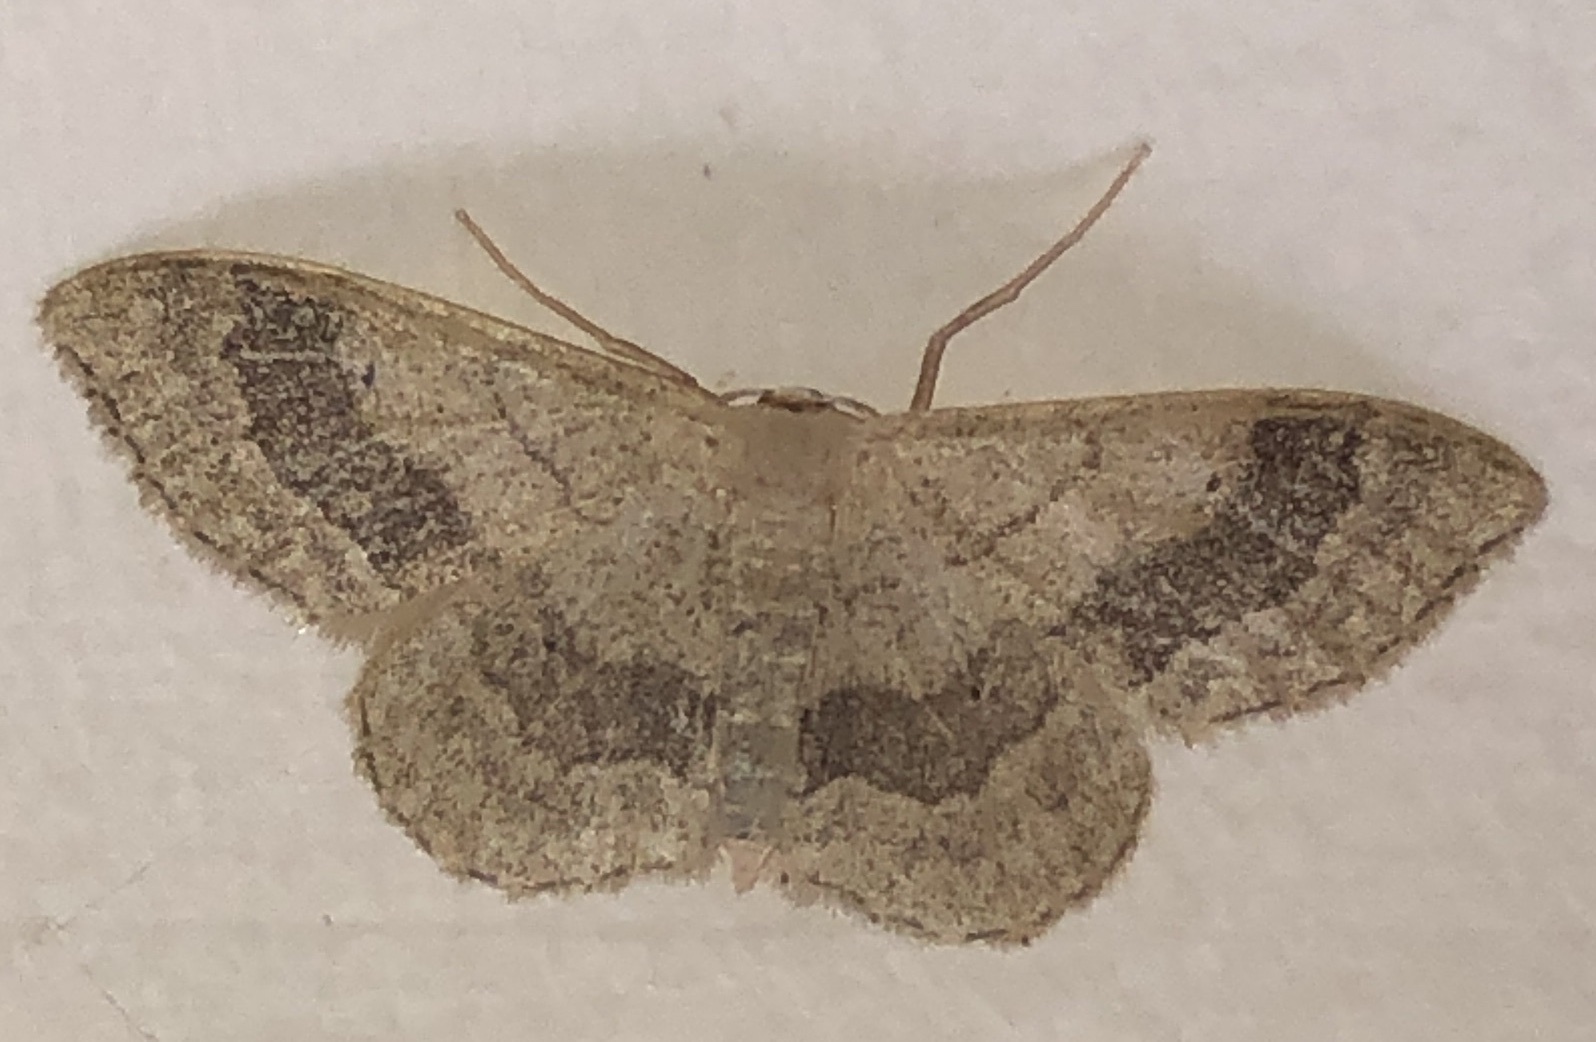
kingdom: Animalia
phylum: Arthropoda
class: Insecta
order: Lepidoptera
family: Geometridae
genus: Idaea
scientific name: Idaea aversata
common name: Riband wave
